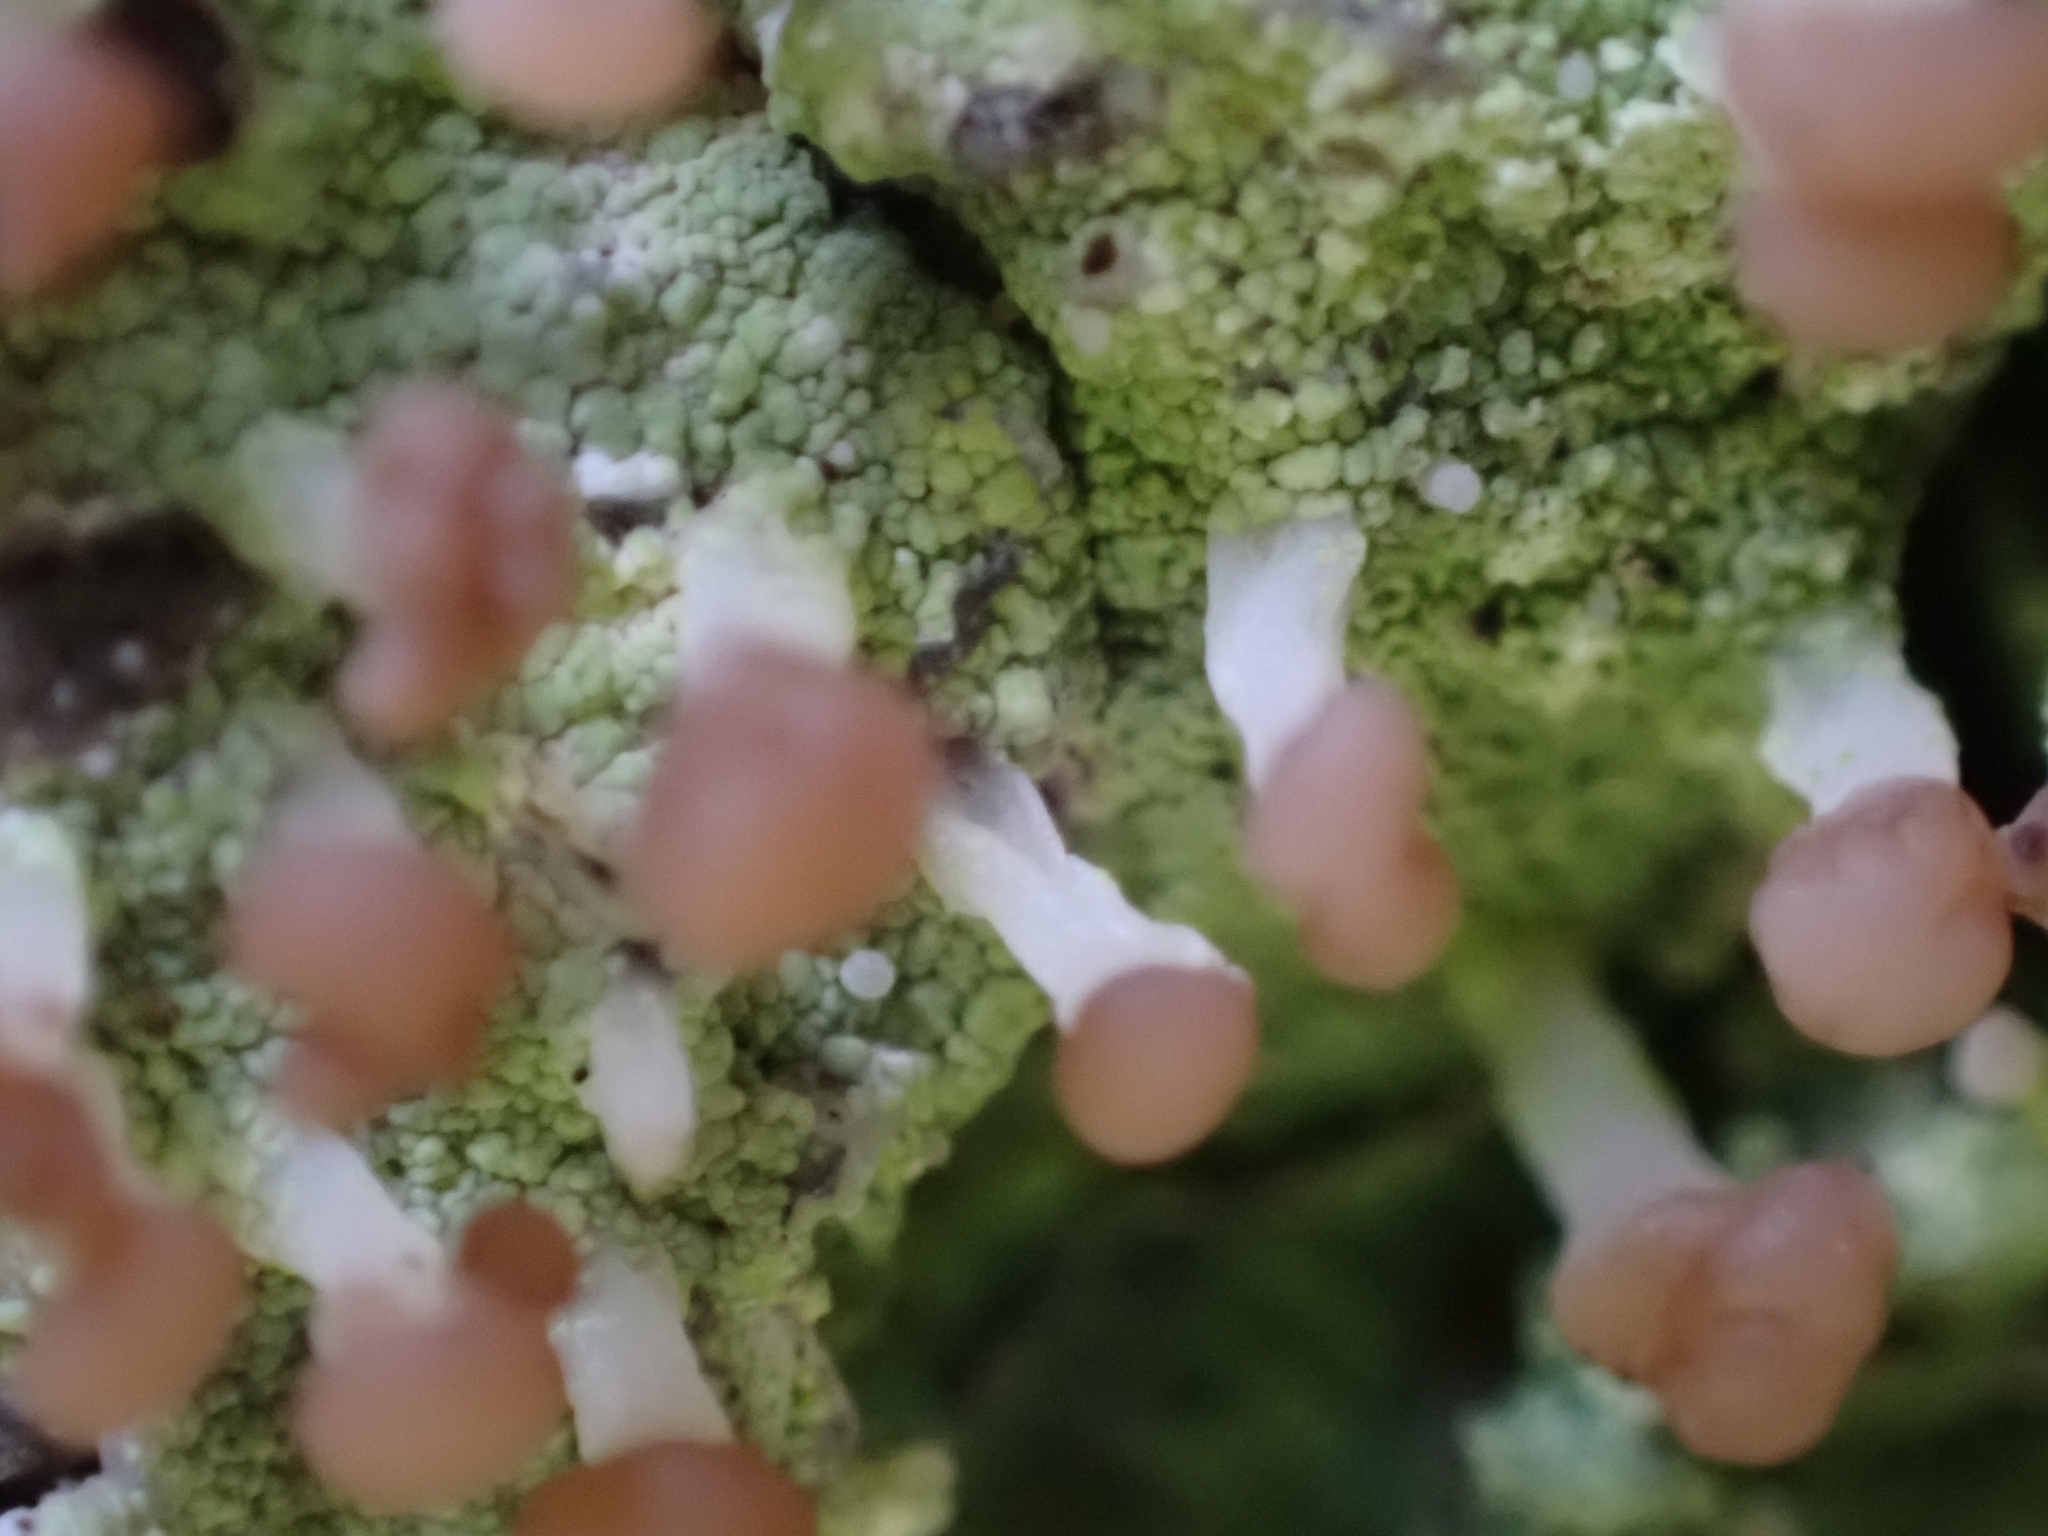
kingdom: Fungi
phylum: Ascomycota
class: Lecanoromycetes
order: Baeomycetales
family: Baeomycetaceae
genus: Baeomyces
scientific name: Baeomyces rufus
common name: Brown beret lichen
